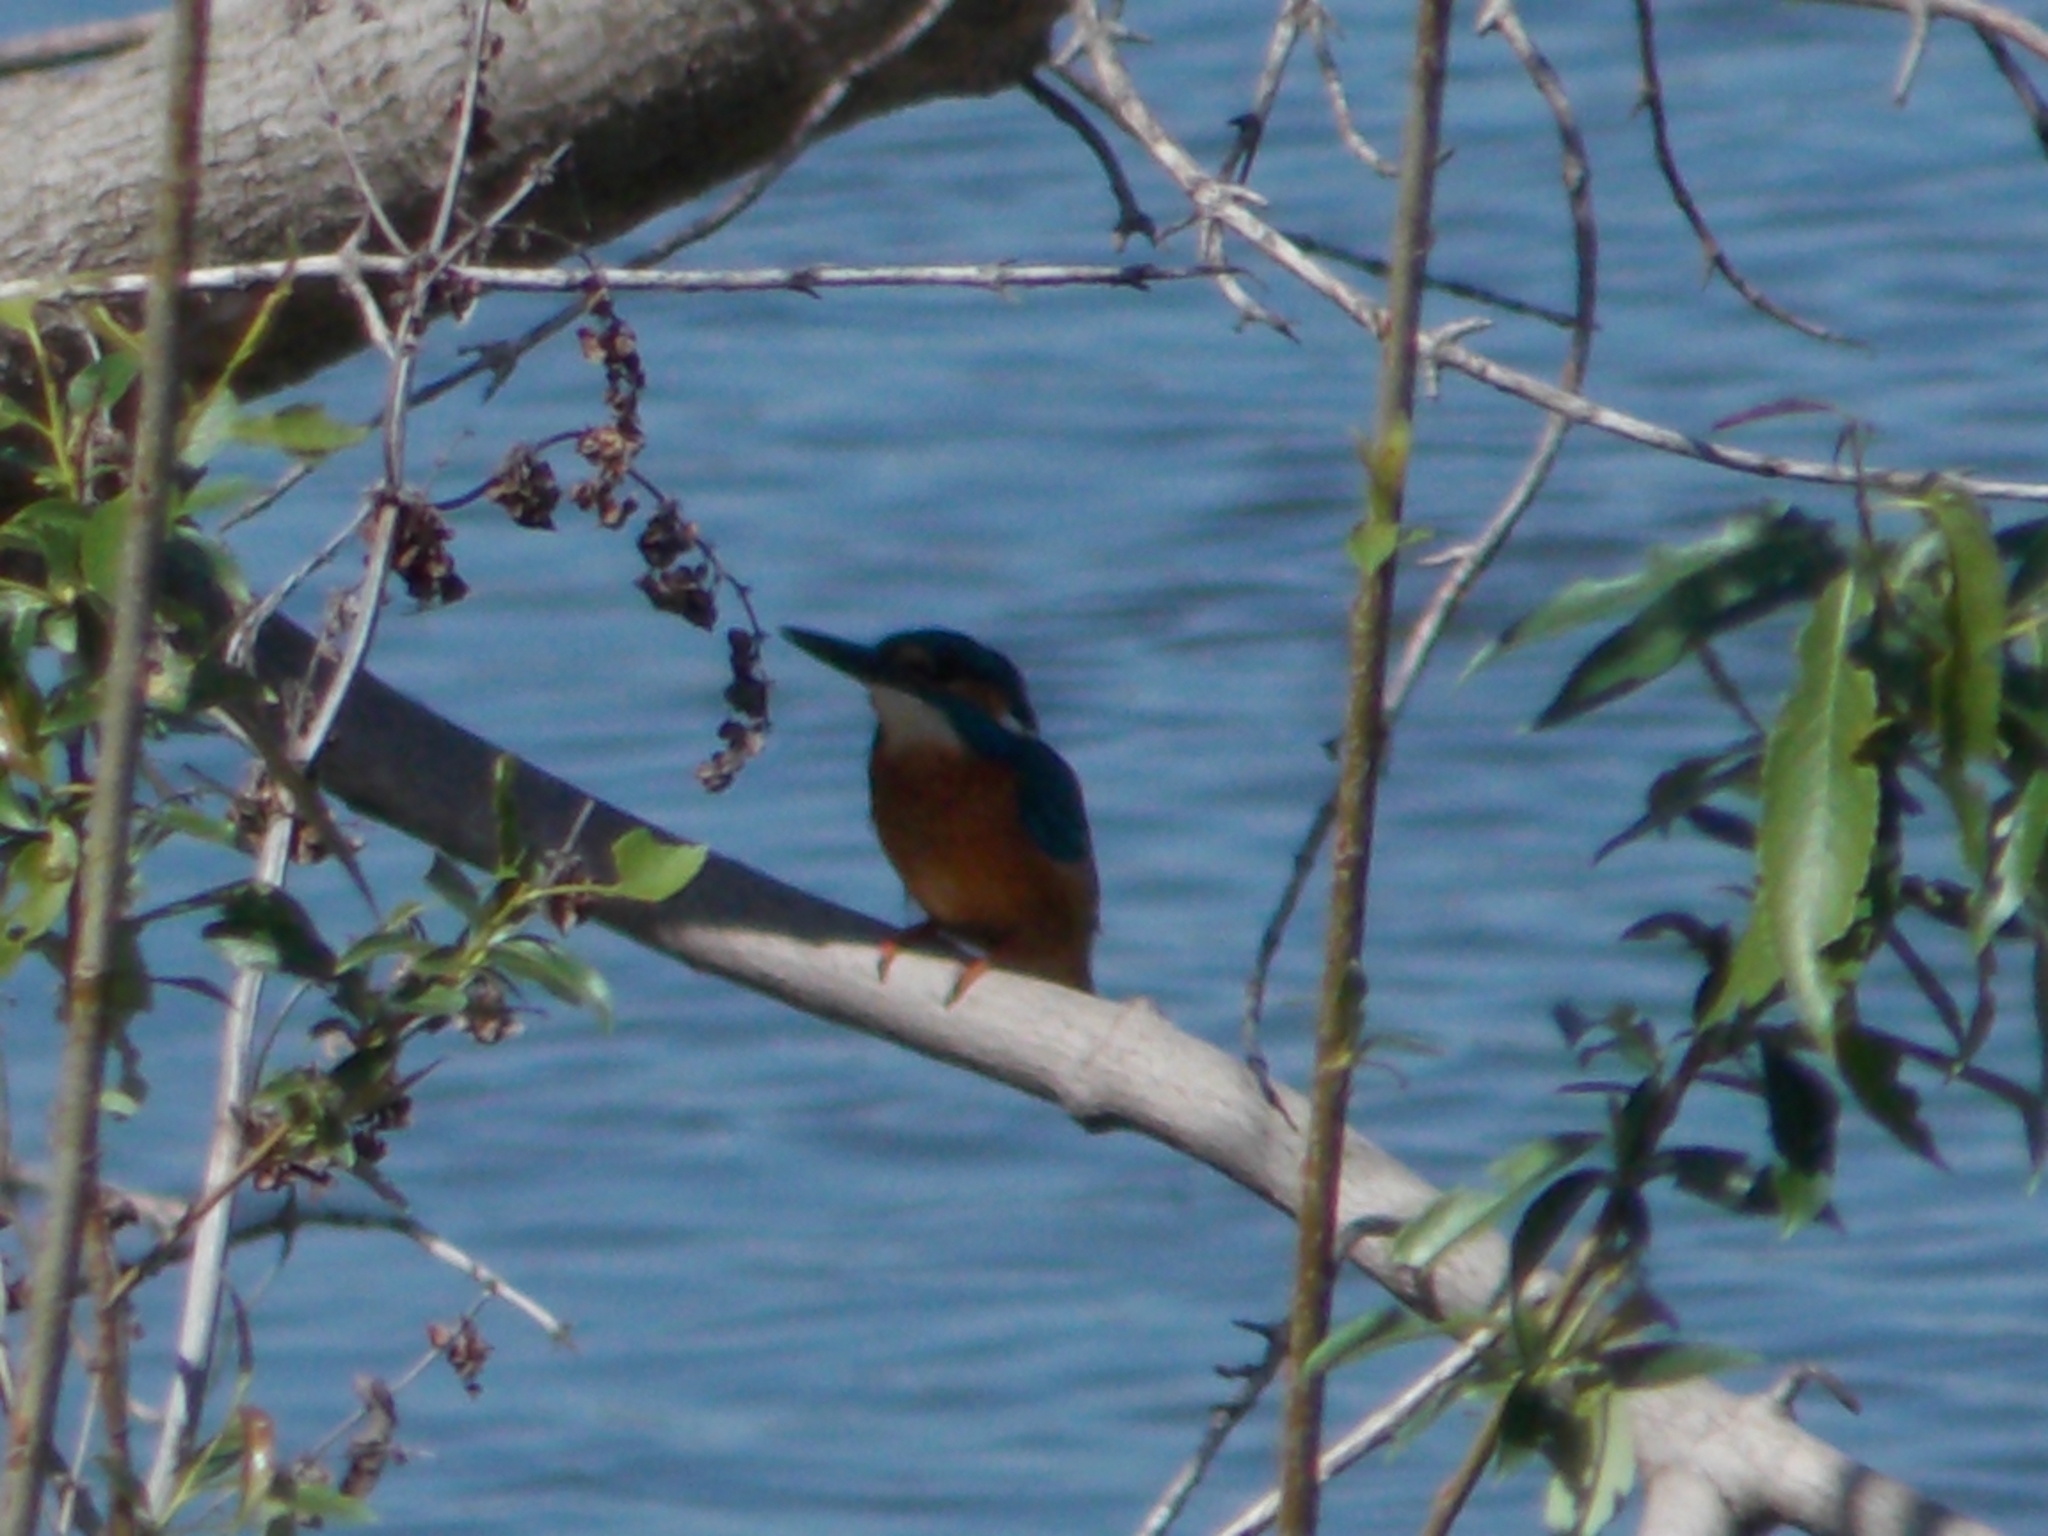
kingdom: Animalia
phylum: Chordata
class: Aves
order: Coraciiformes
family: Alcedinidae
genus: Alcedo
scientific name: Alcedo atthis
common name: Common kingfisher
